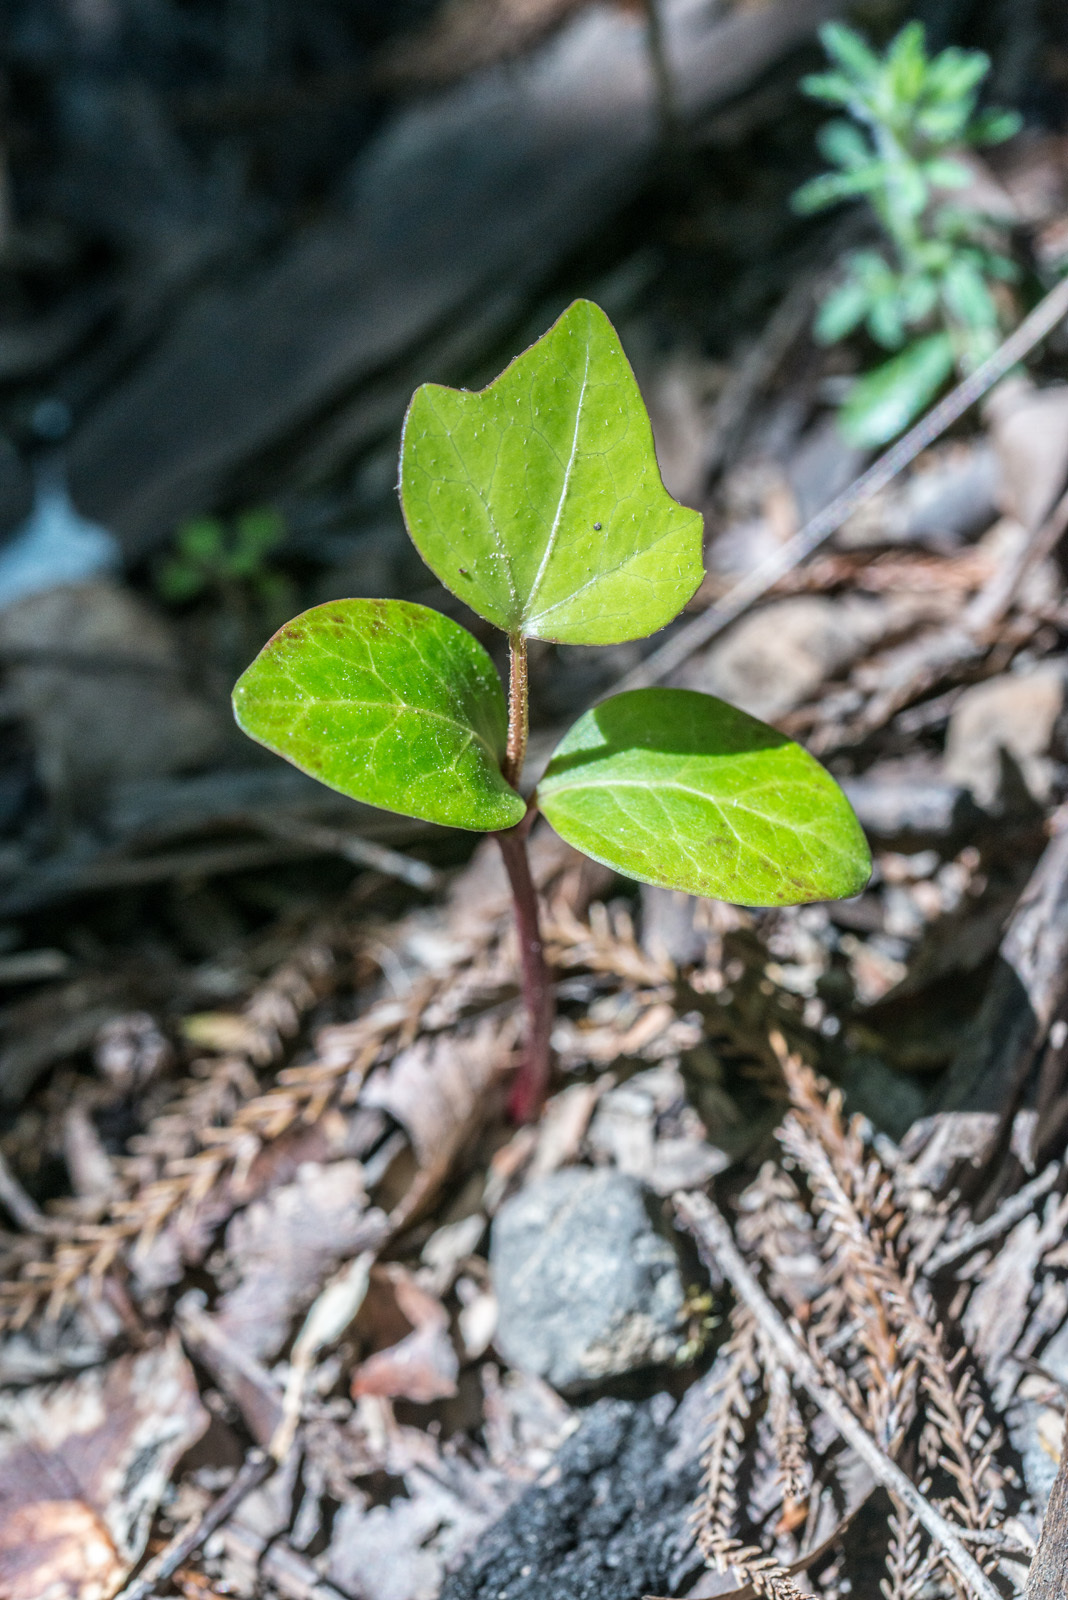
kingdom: Plantae
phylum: Tracheophyta
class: Magnoliopsida
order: Apiales
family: Araliaceae
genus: Hedera
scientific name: Hedera helix
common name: Ivy
